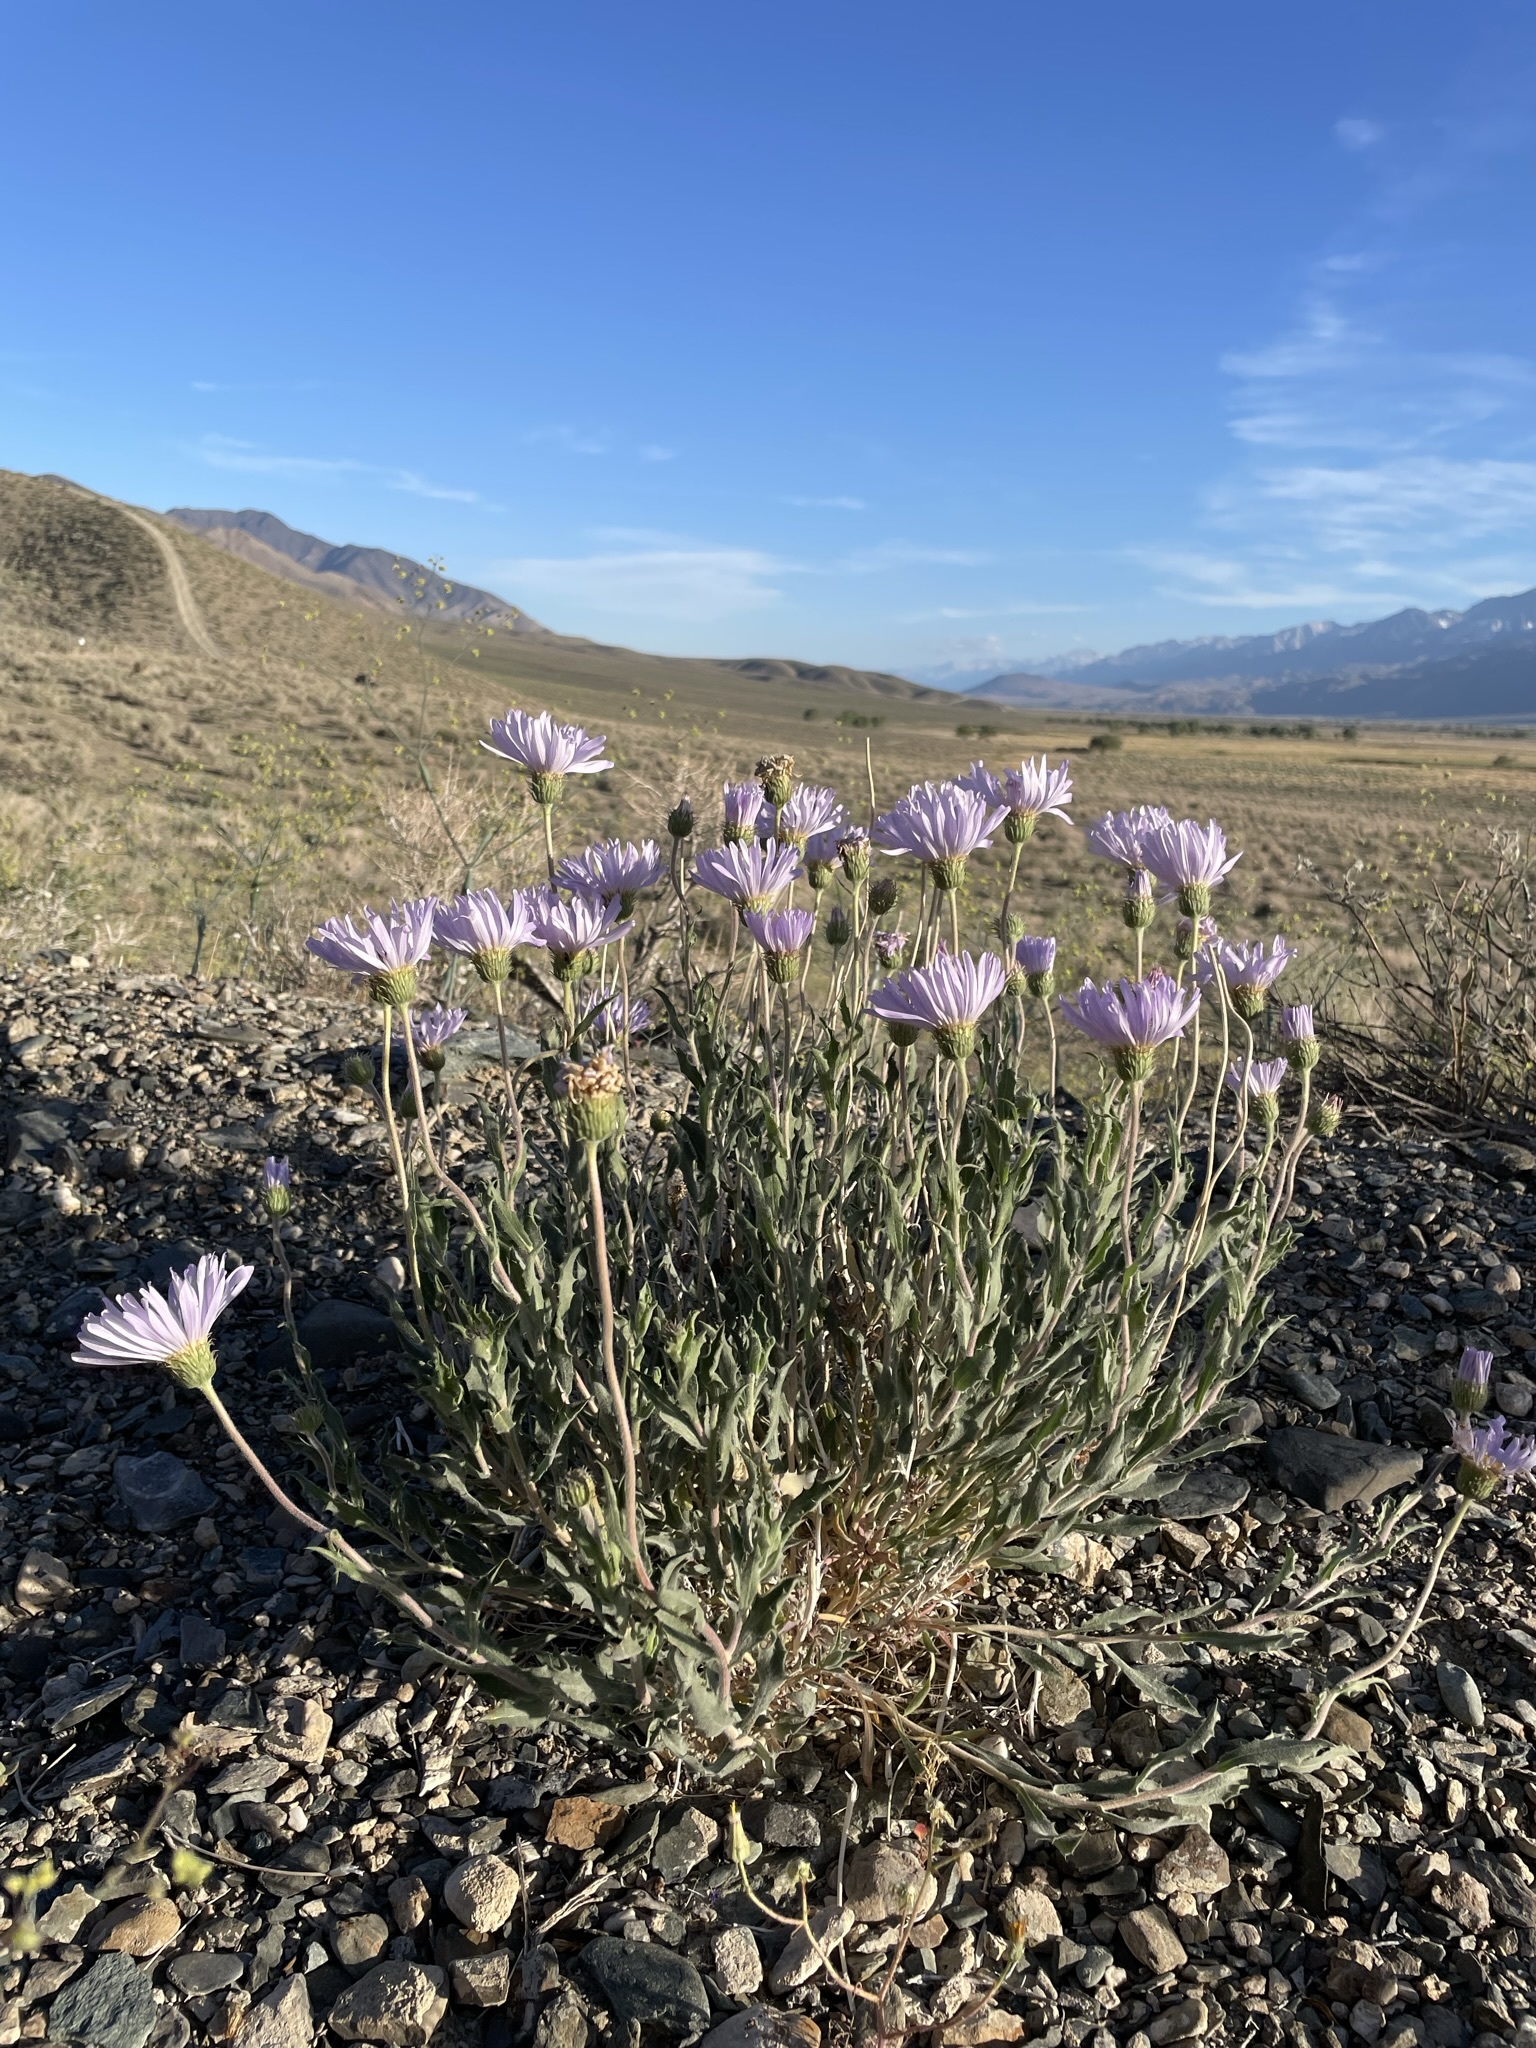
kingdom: Plantae
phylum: Tracheophyta
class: Magnoliopsida
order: Asterales
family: Asteraceae
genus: Xylorhiza
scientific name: Xylorhiza tortifolia
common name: Hurt-leaf woody-aster
